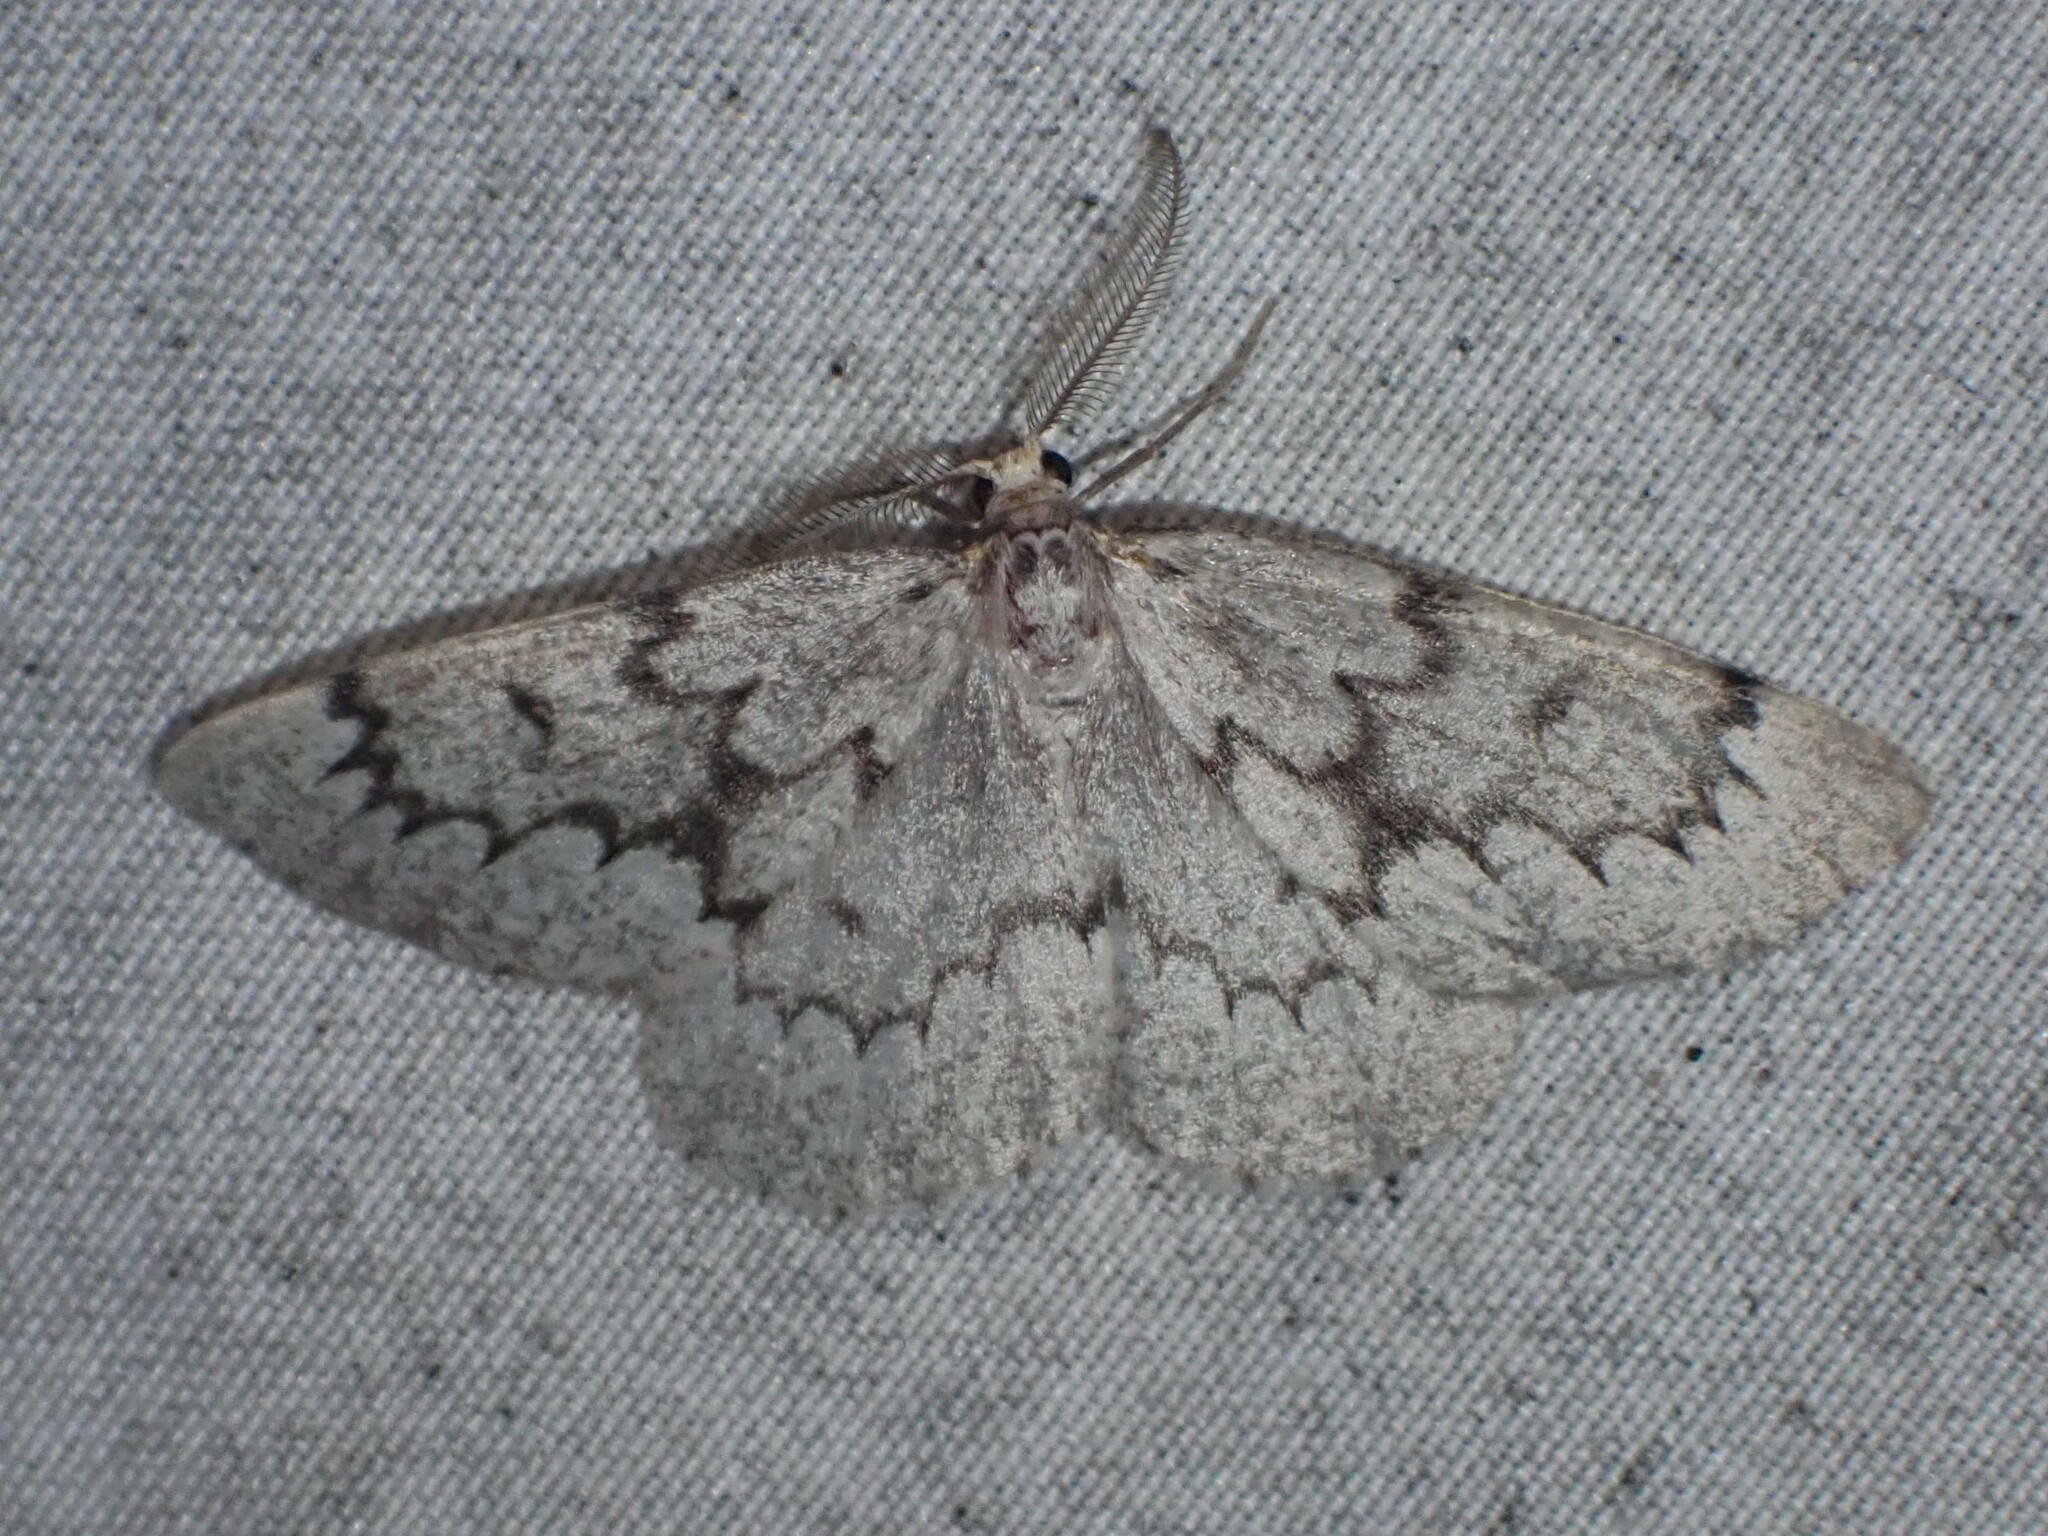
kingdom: Animalia
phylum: Arthropoda
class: Insecta
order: Lepidoptera
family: Geometridae
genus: Nepytia
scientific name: Nepytia canosaria
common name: False hemlock looper
